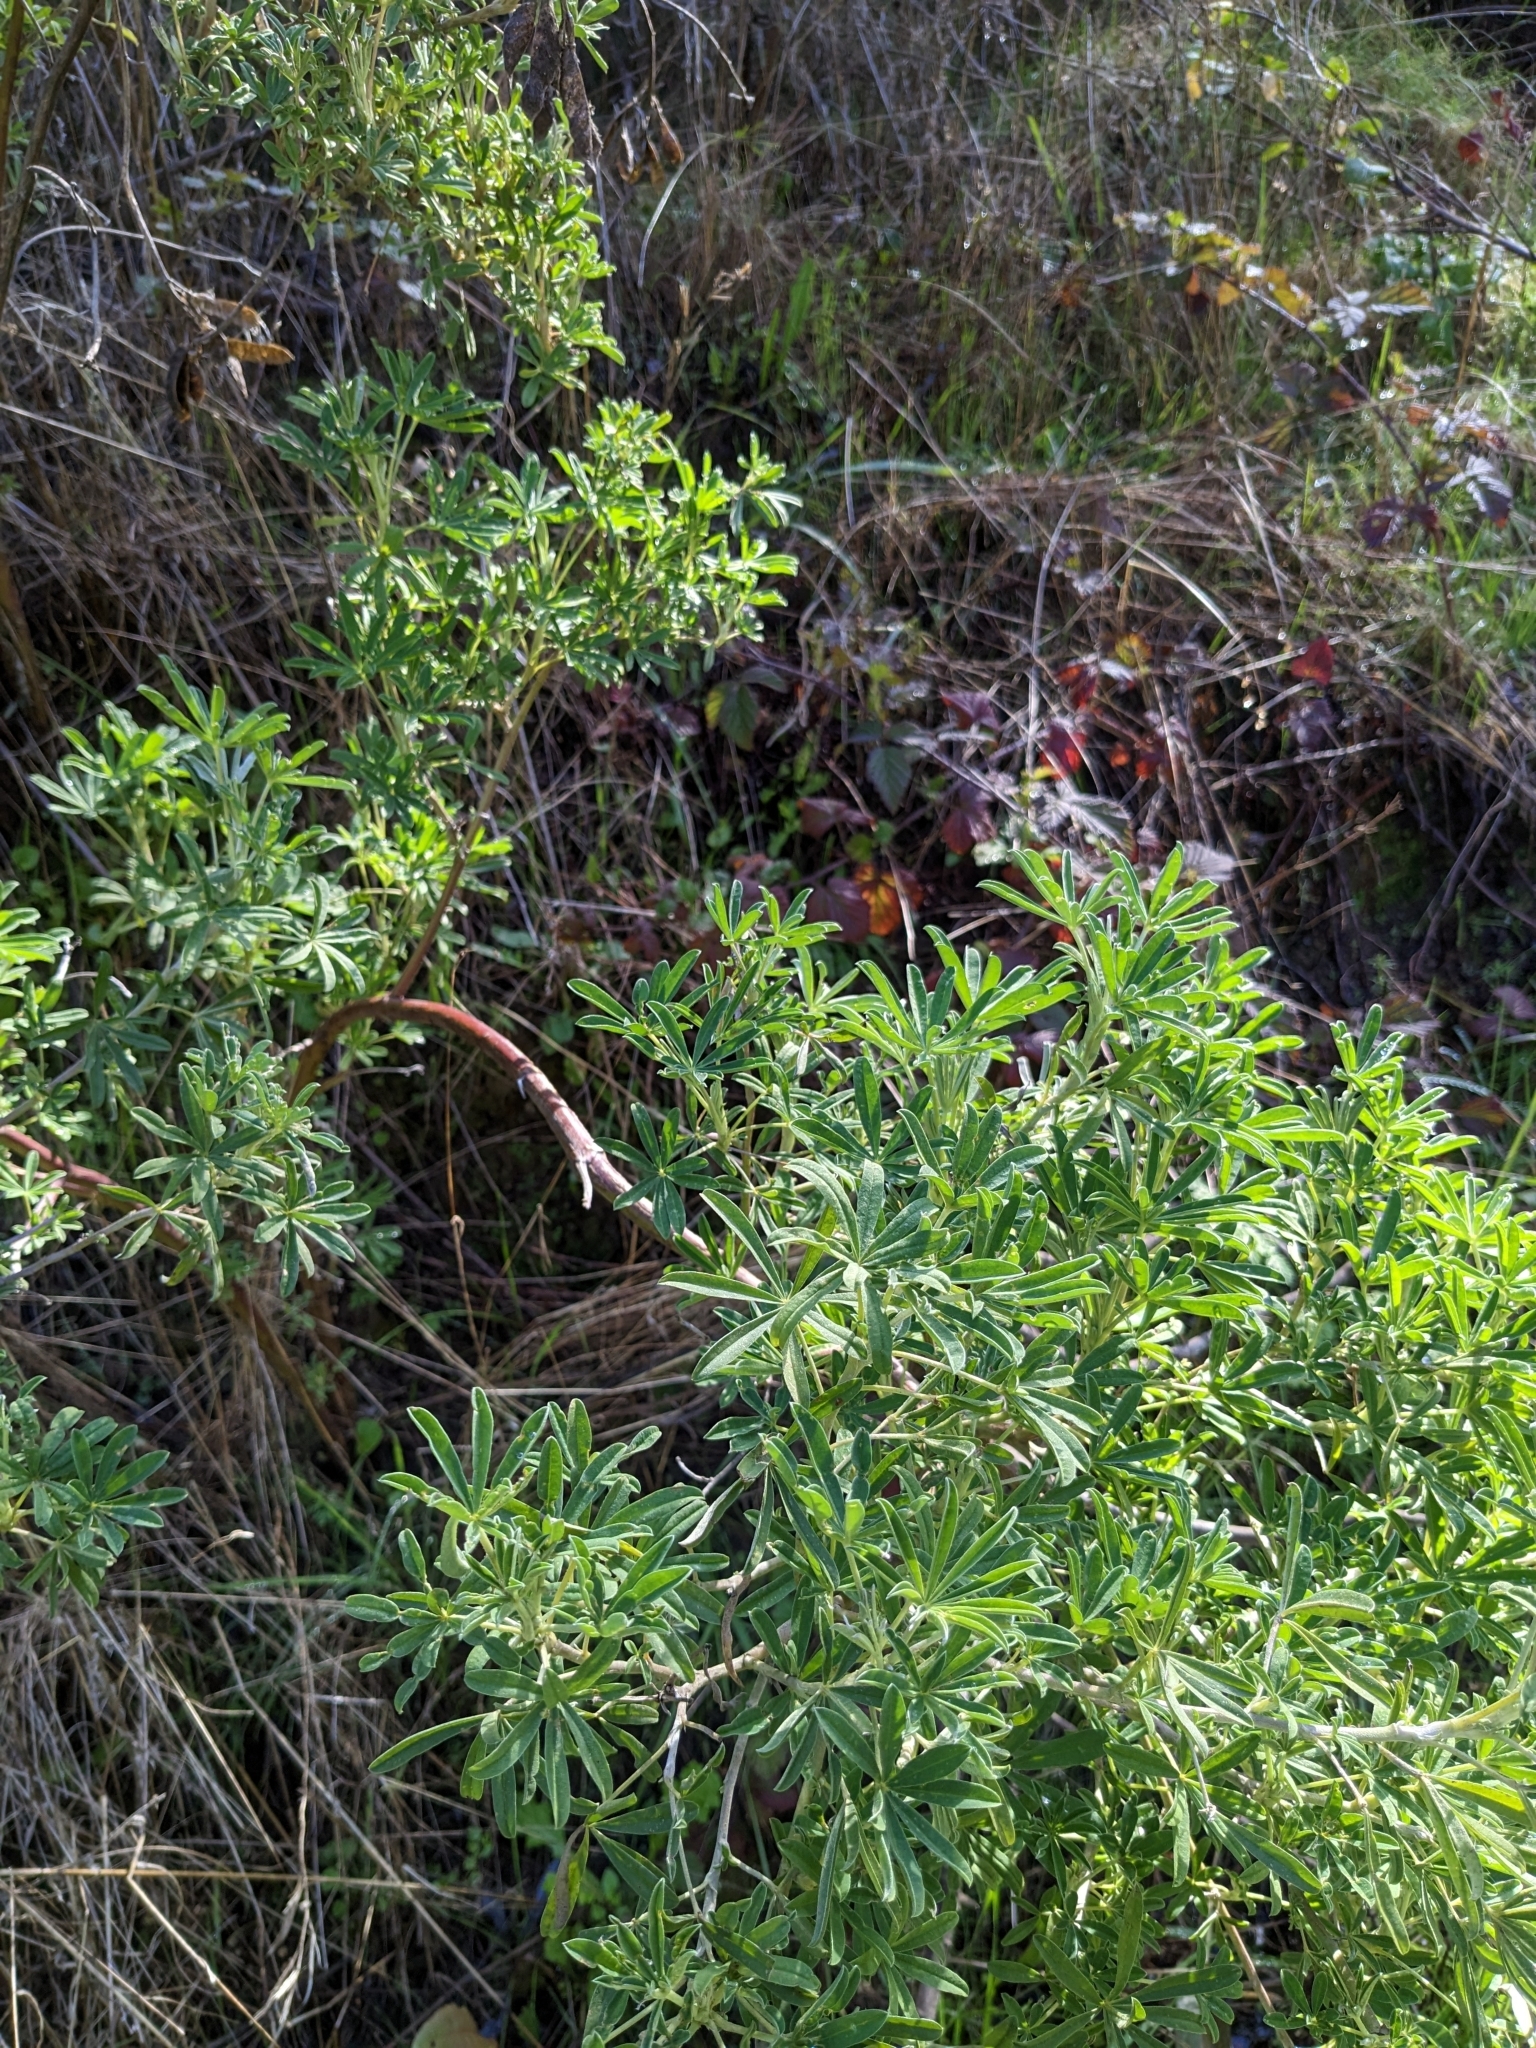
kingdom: Plantae
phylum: Tracheophyta
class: Magnoliopsida
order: Fabales
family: Fabaceae
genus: Lupinus
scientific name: Lupinus arboreus
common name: Yellow bush lupine
